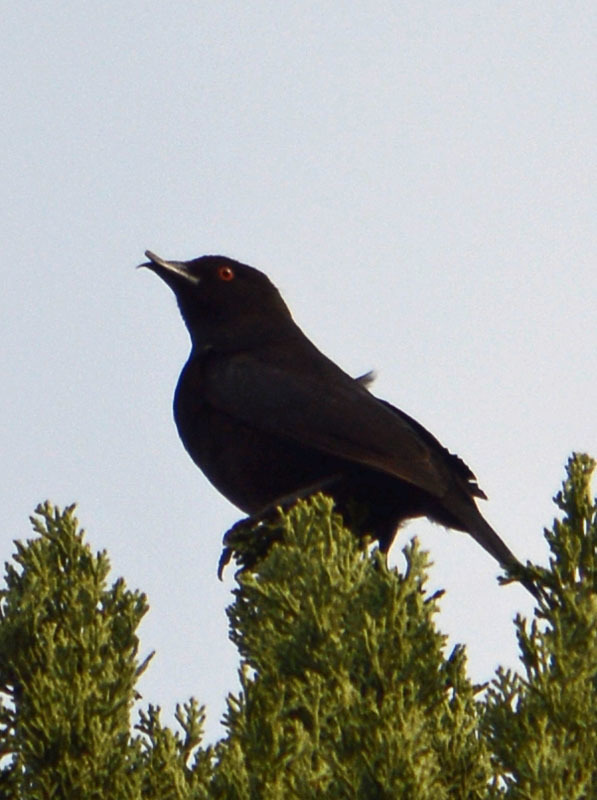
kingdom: Animalia
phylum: Chordata
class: Aves
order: Passeriformes
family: Icteridae
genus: Molothrus
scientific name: Molothrus aeneus
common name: Bronzed cowbird
